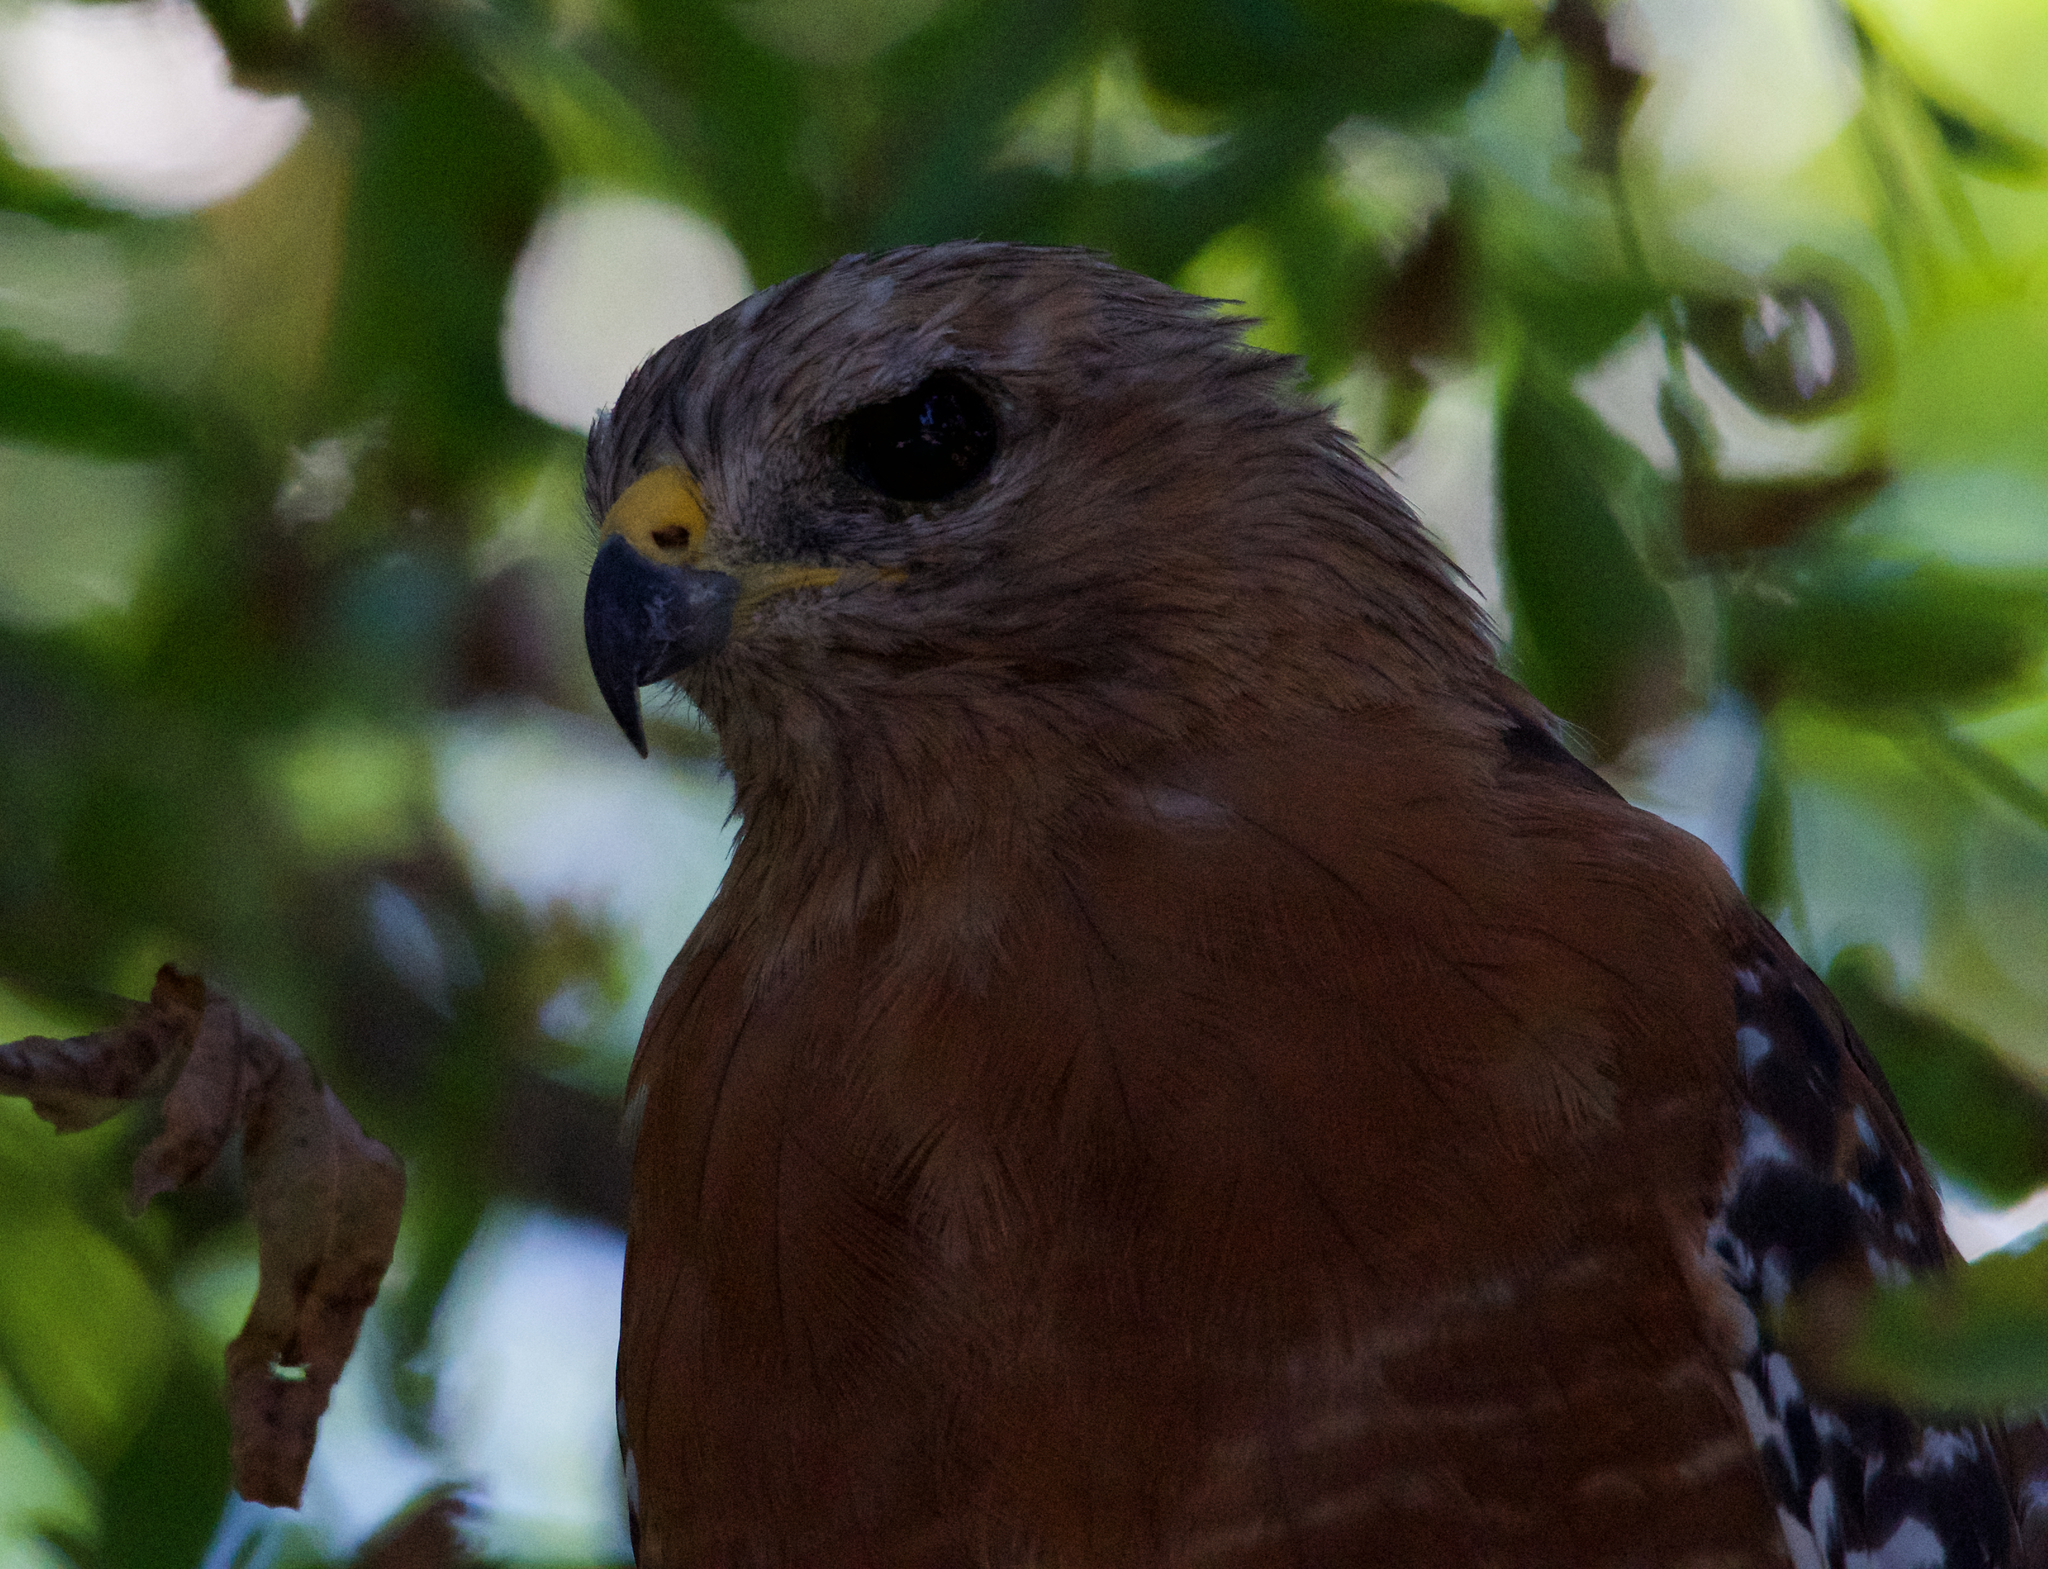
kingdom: Animalia
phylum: Chordata
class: Aves
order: Accipitriformes
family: Accipitridae
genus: Buteo
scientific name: Buteo lineatus
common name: Red-shouldered hawk
